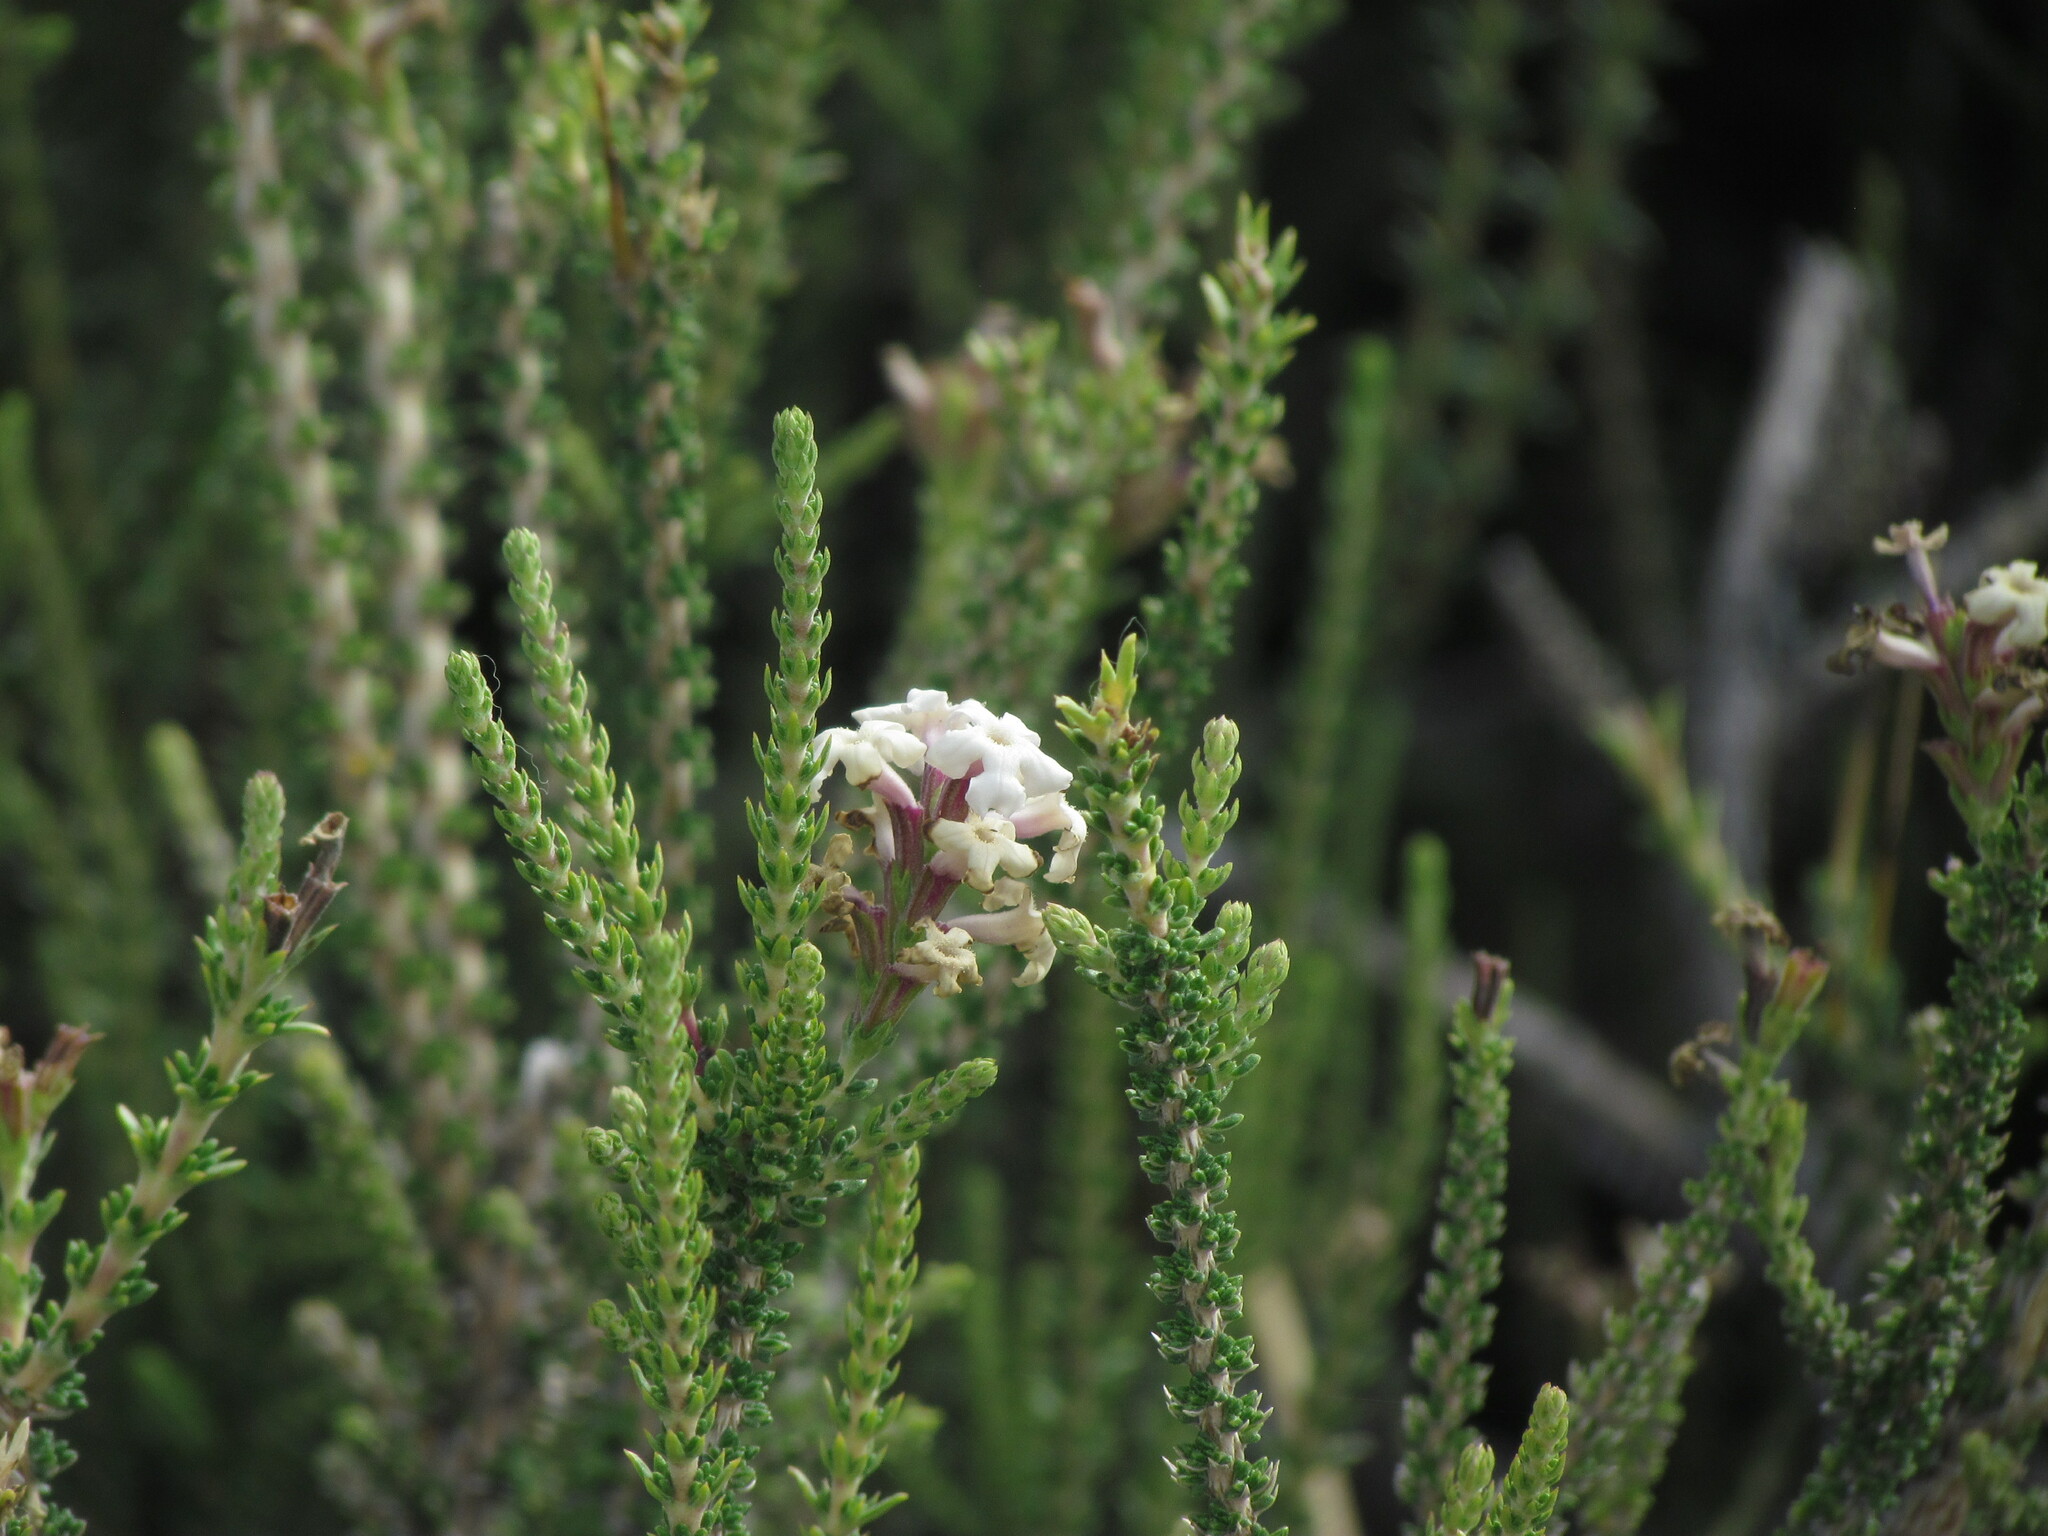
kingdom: Plantae
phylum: Tracheophyta
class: Magnoliopsida
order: Lamiales
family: Verbenaceae
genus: Mulguraea
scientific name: Mulguraea tridens
